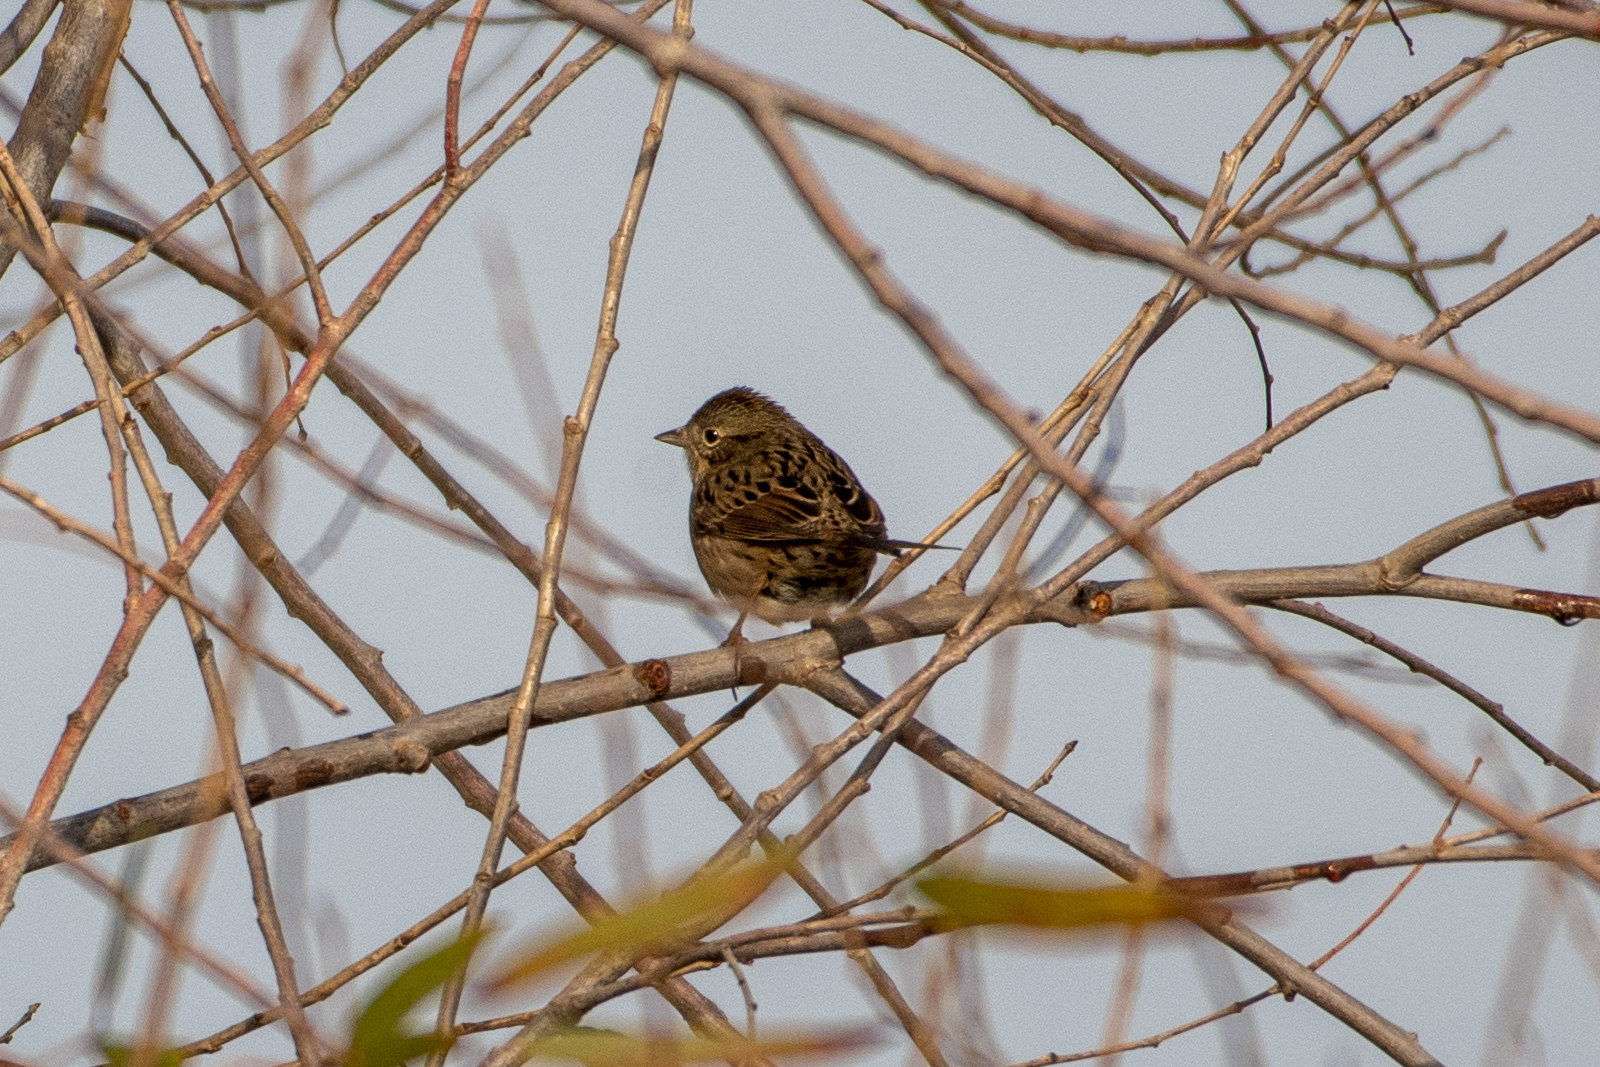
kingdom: Animalia
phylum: Chordata
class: Aves
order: Passeriformes
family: Passerellidae
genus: Melospiza
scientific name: Melospiza lincolnii
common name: Lincoln's sparrow
